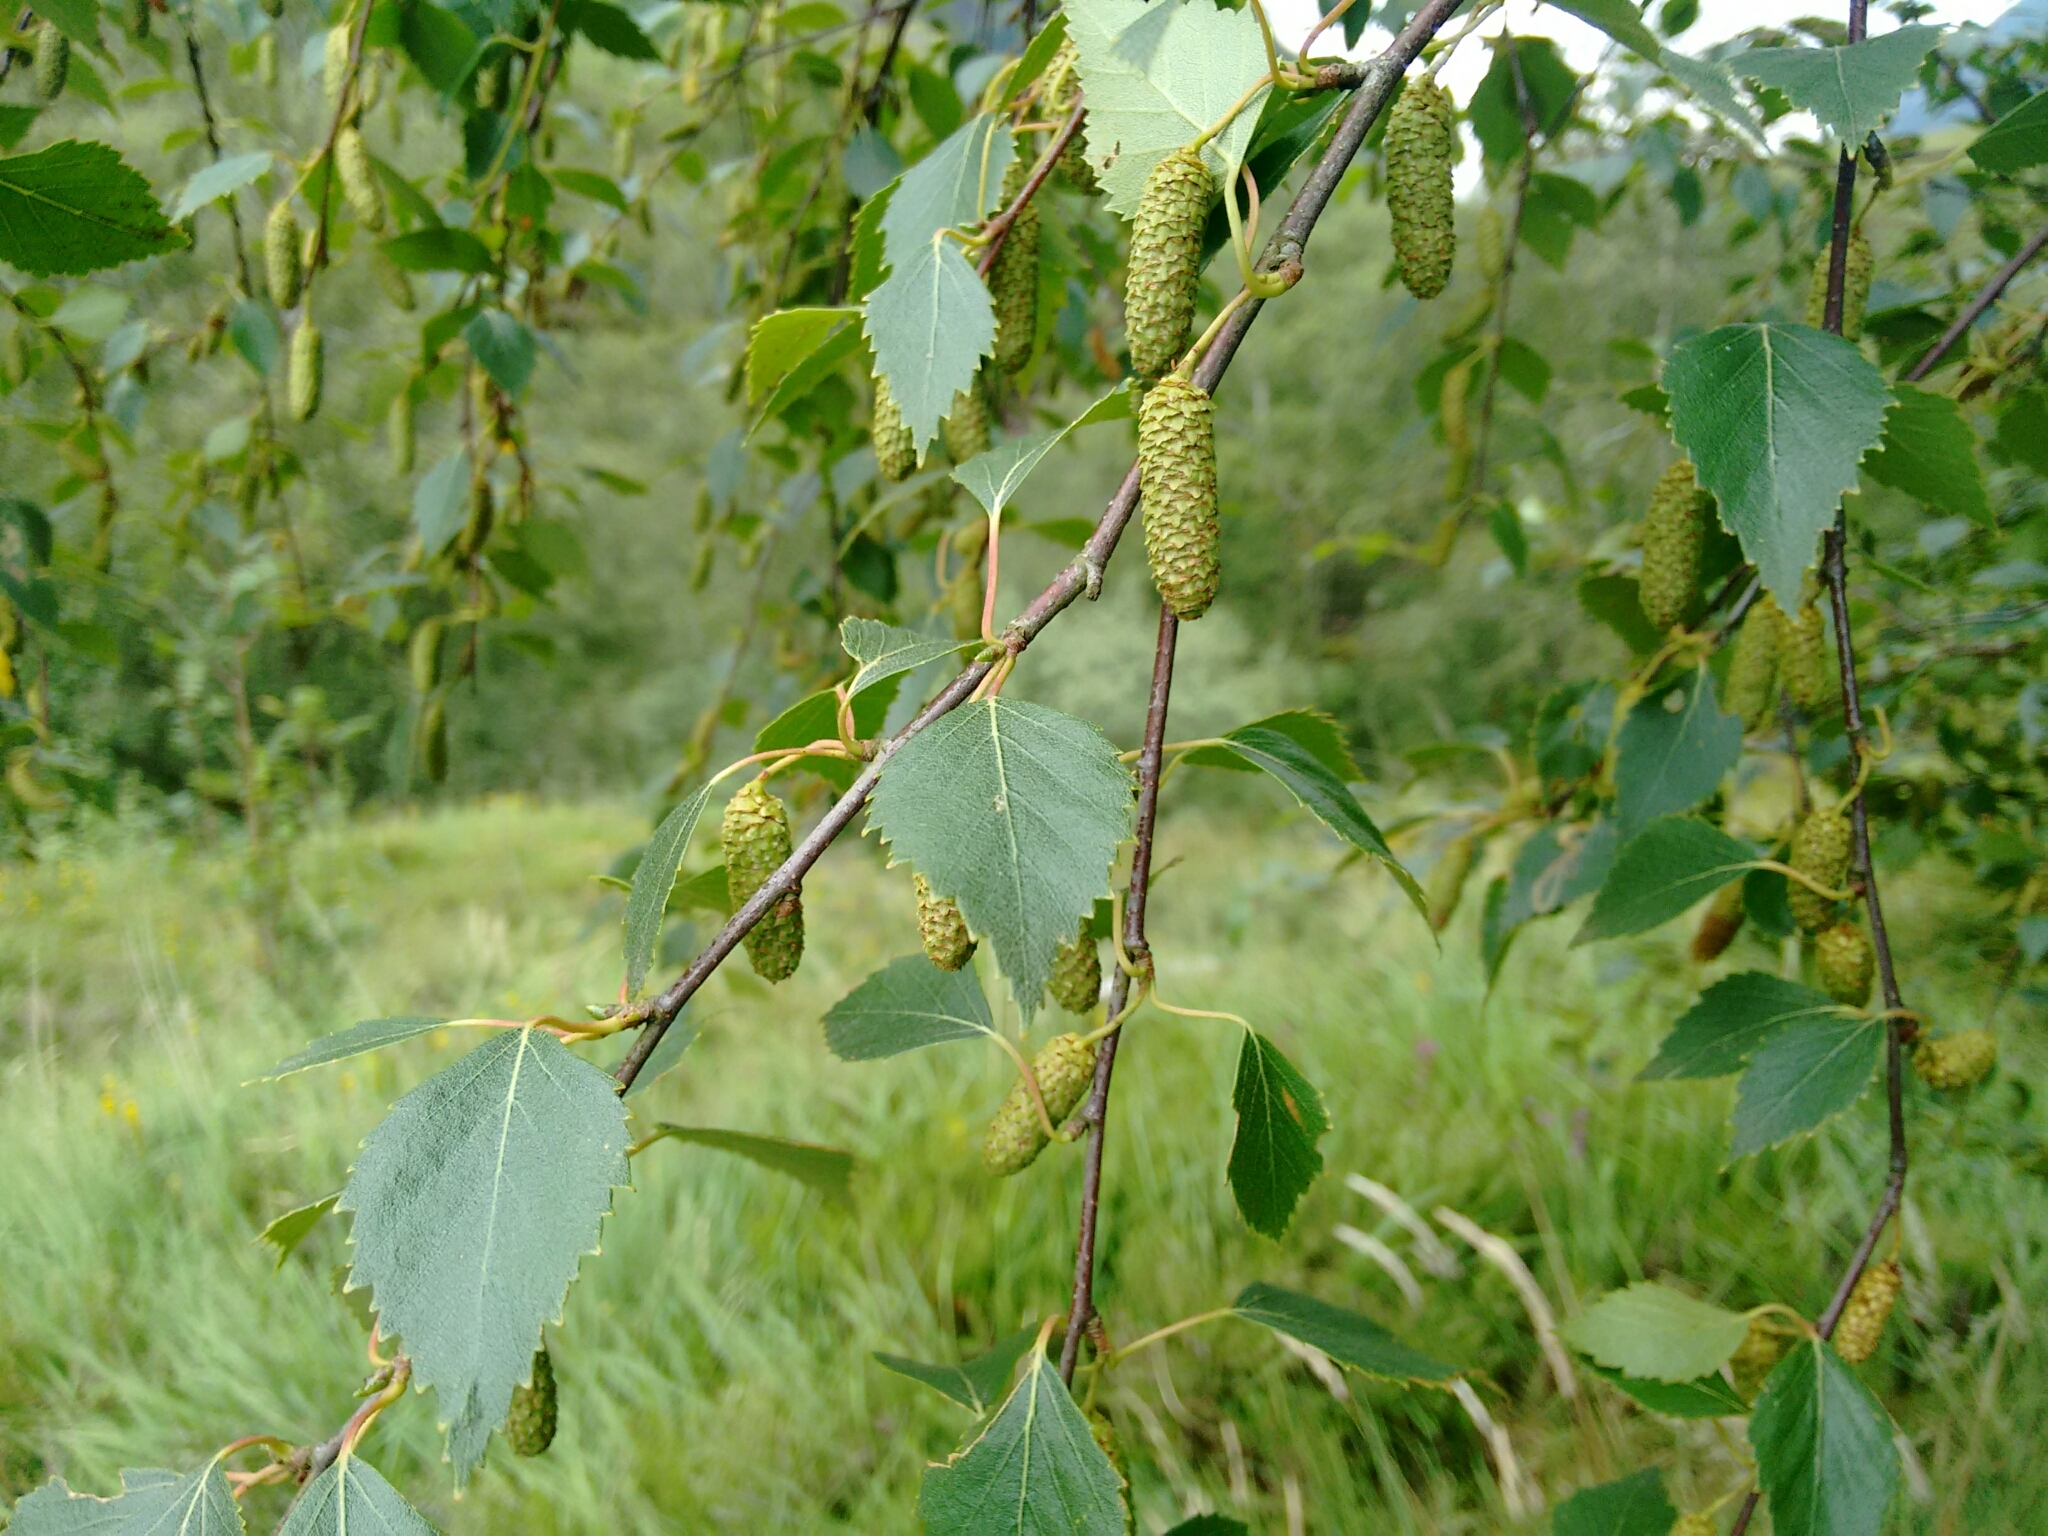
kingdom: Plantae
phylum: Tracheophyta
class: Magnoliopsida
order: Fagales
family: Betulaceae
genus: Betula
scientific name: Betula pendula
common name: Silver birch
